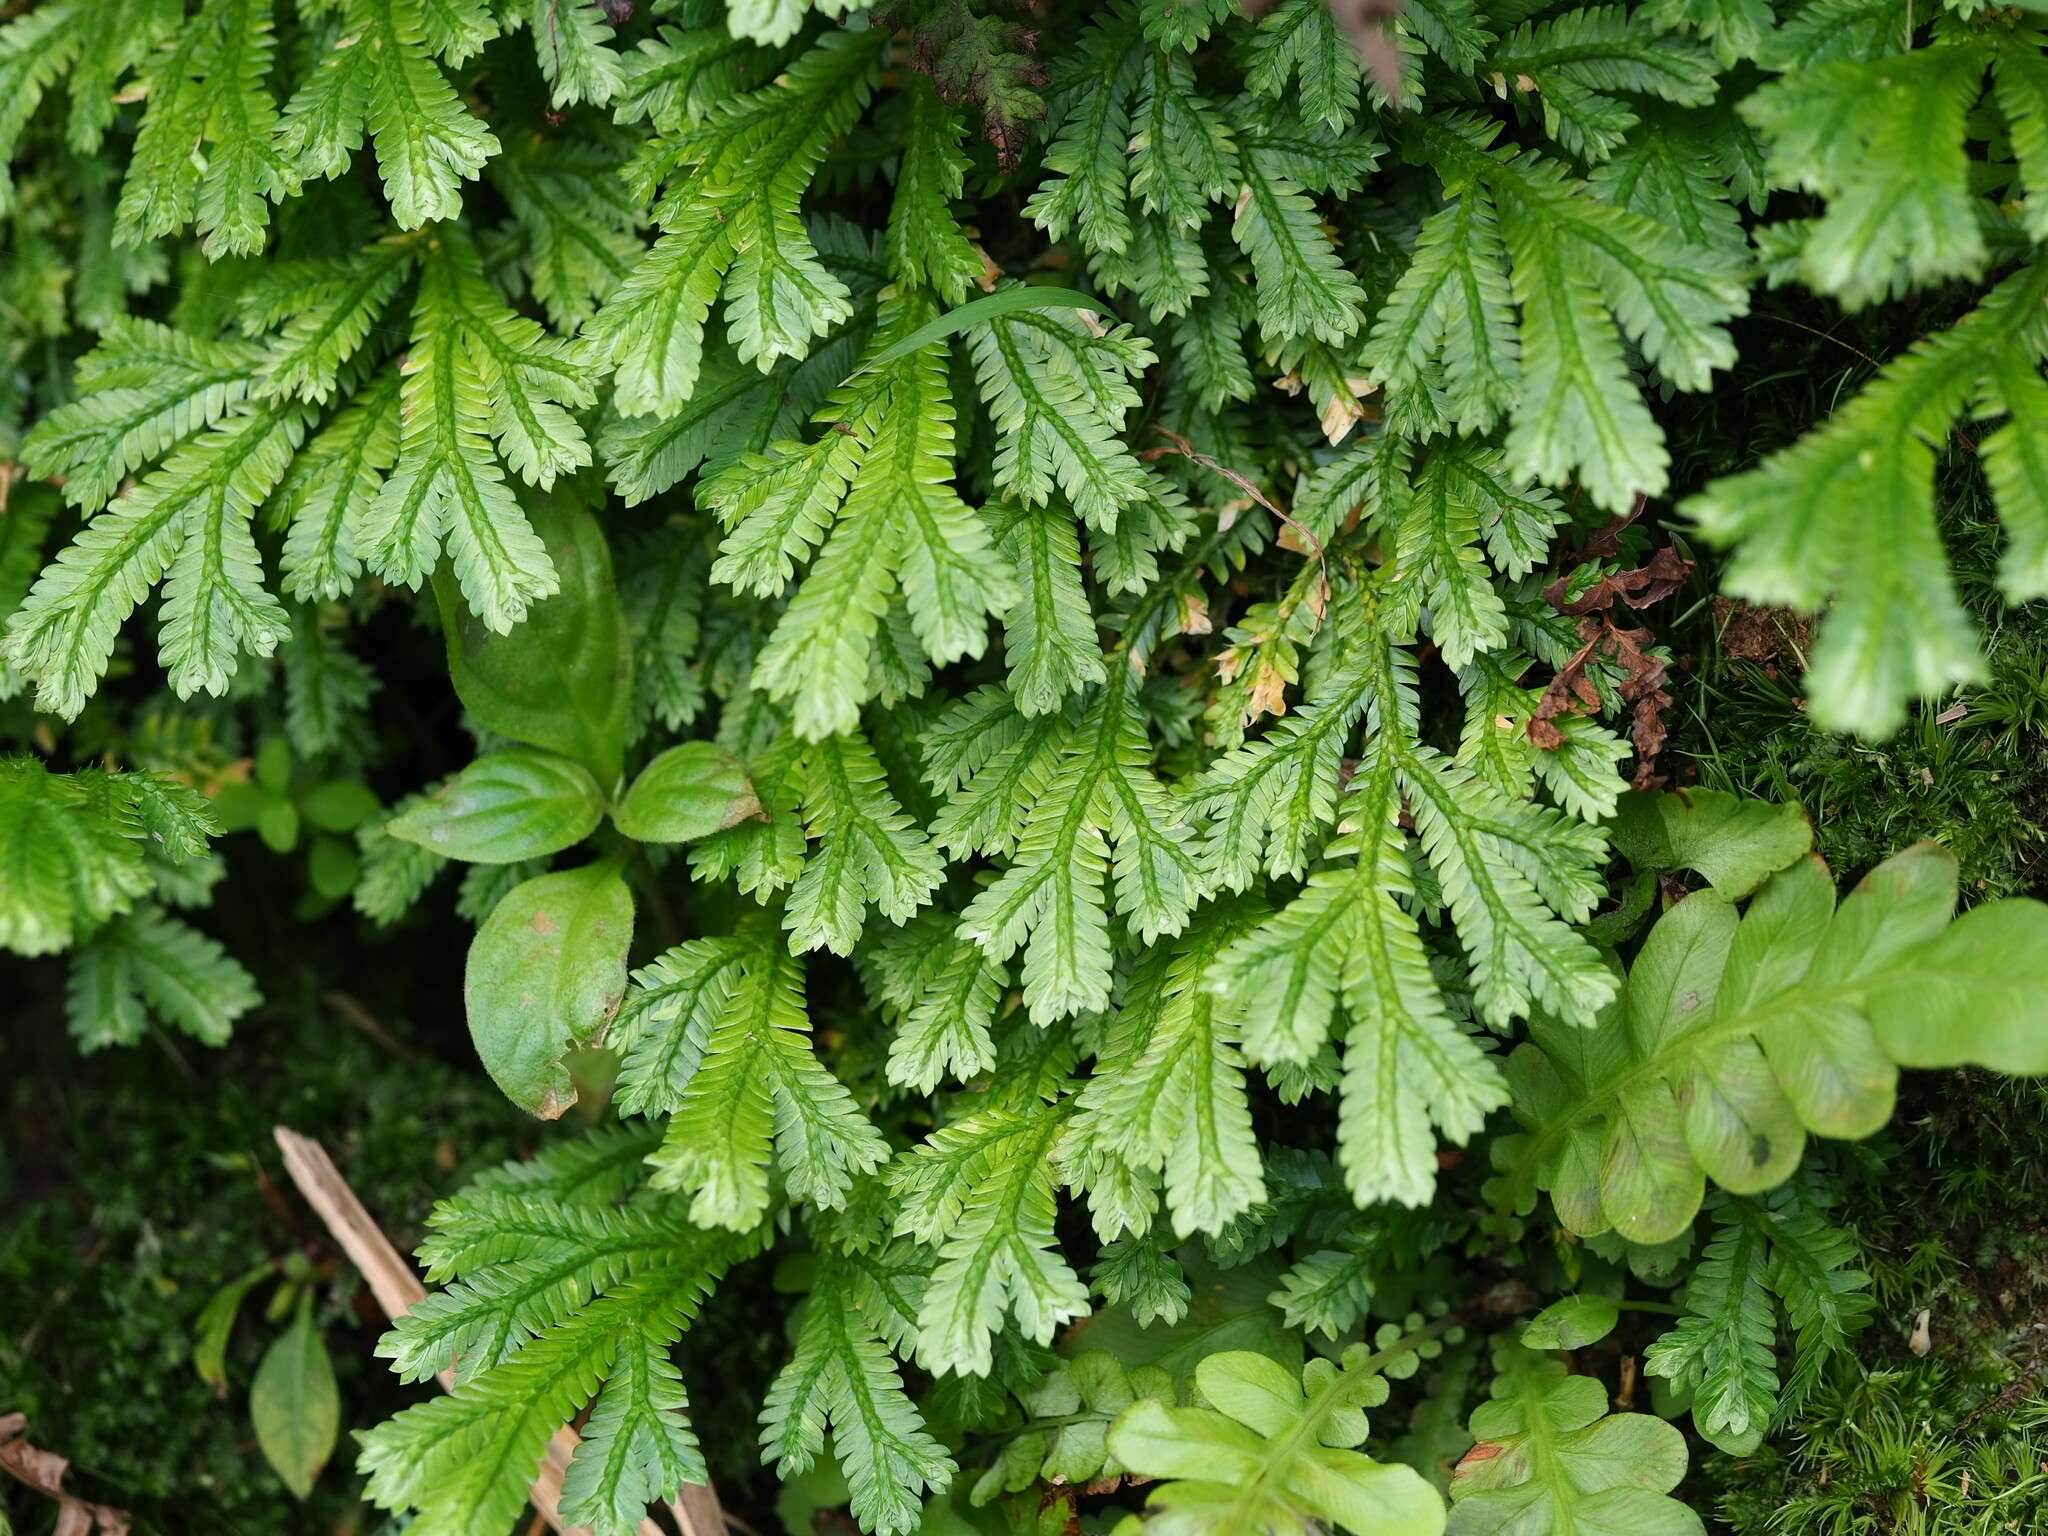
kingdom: Plantae
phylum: Tracheophyta
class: Lycopodiopsida
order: Selaginellales
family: Selaginellaceae
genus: Selaginella
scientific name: Selaginella doederleinii
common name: Greater selaginella
